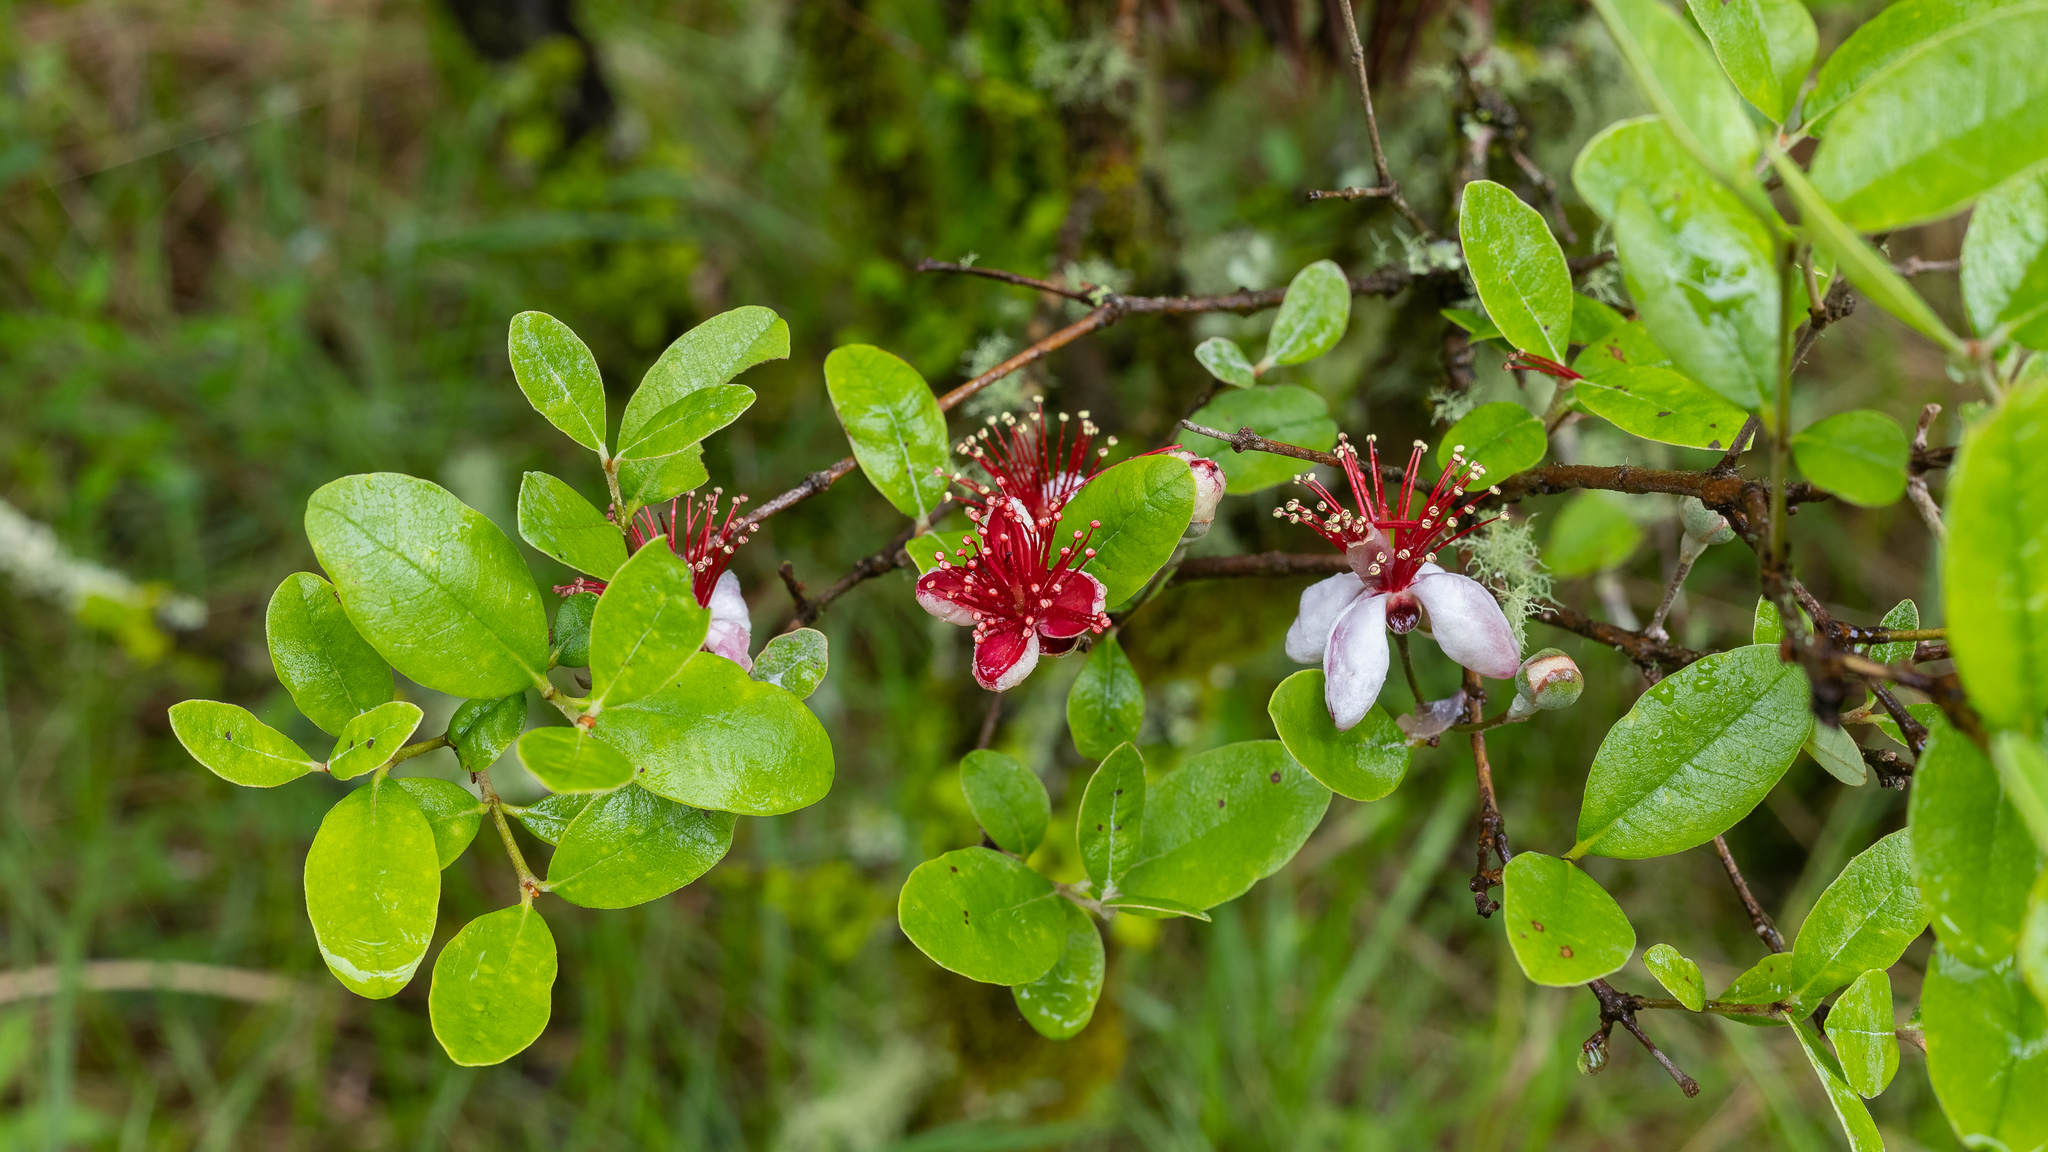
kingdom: Plantae
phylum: Tracheophyta
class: Magnoliopsida
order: Myrtales
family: Myrtaceae
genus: Feijoa
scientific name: Feijoa sellowiana
